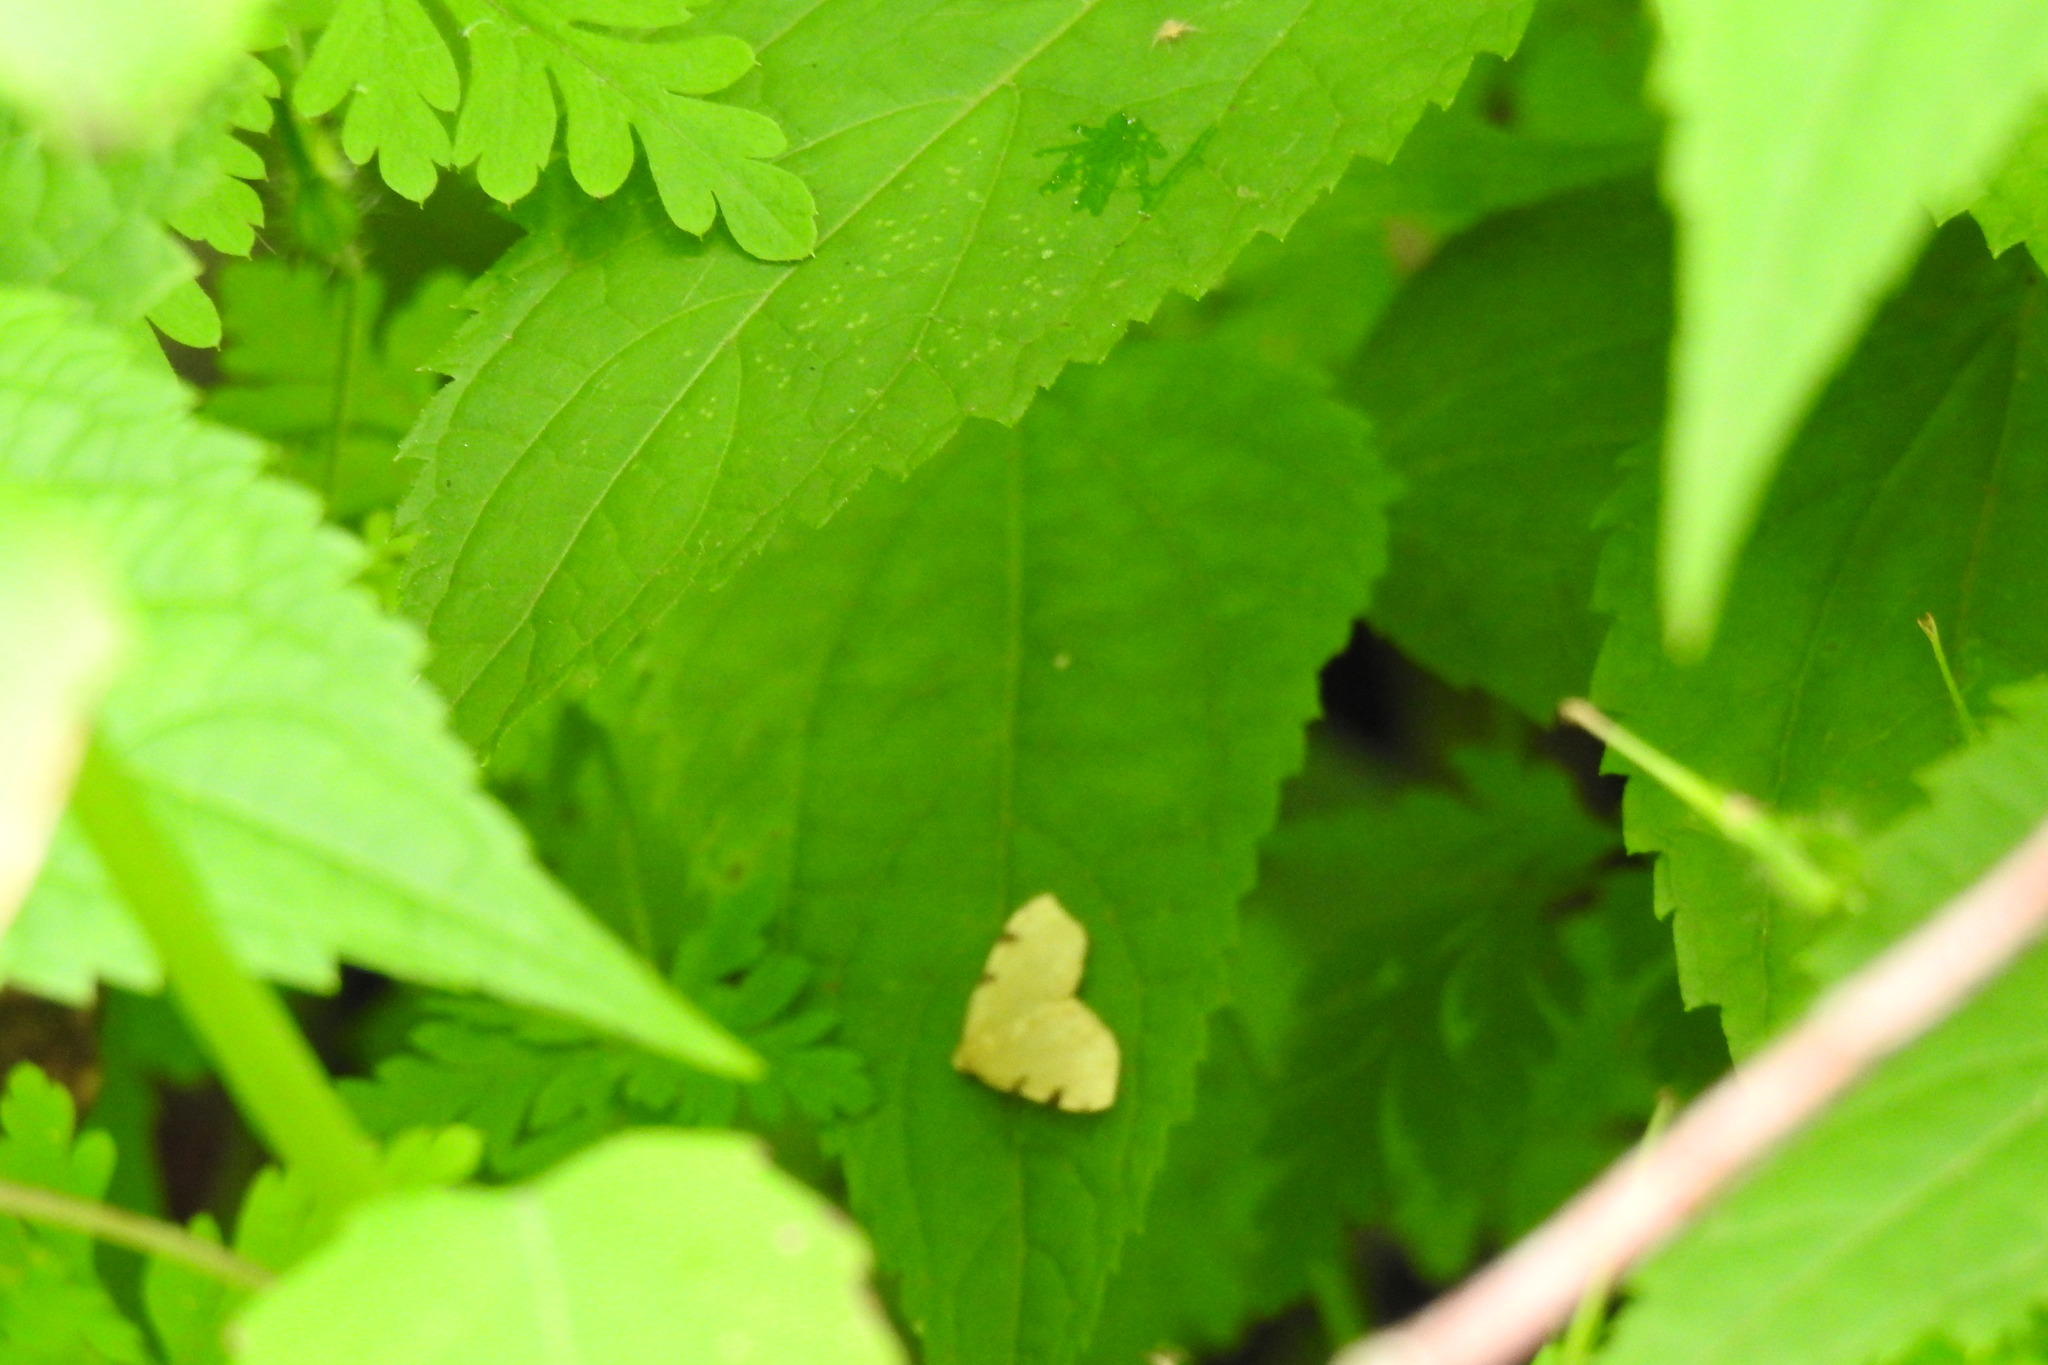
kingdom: Animalia
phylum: Arthropoda
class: Insecta
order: Lepidoptera
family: Geometridae
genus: Heterophleps
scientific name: Heterophleps triguttaria
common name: Three-spotted fillip
